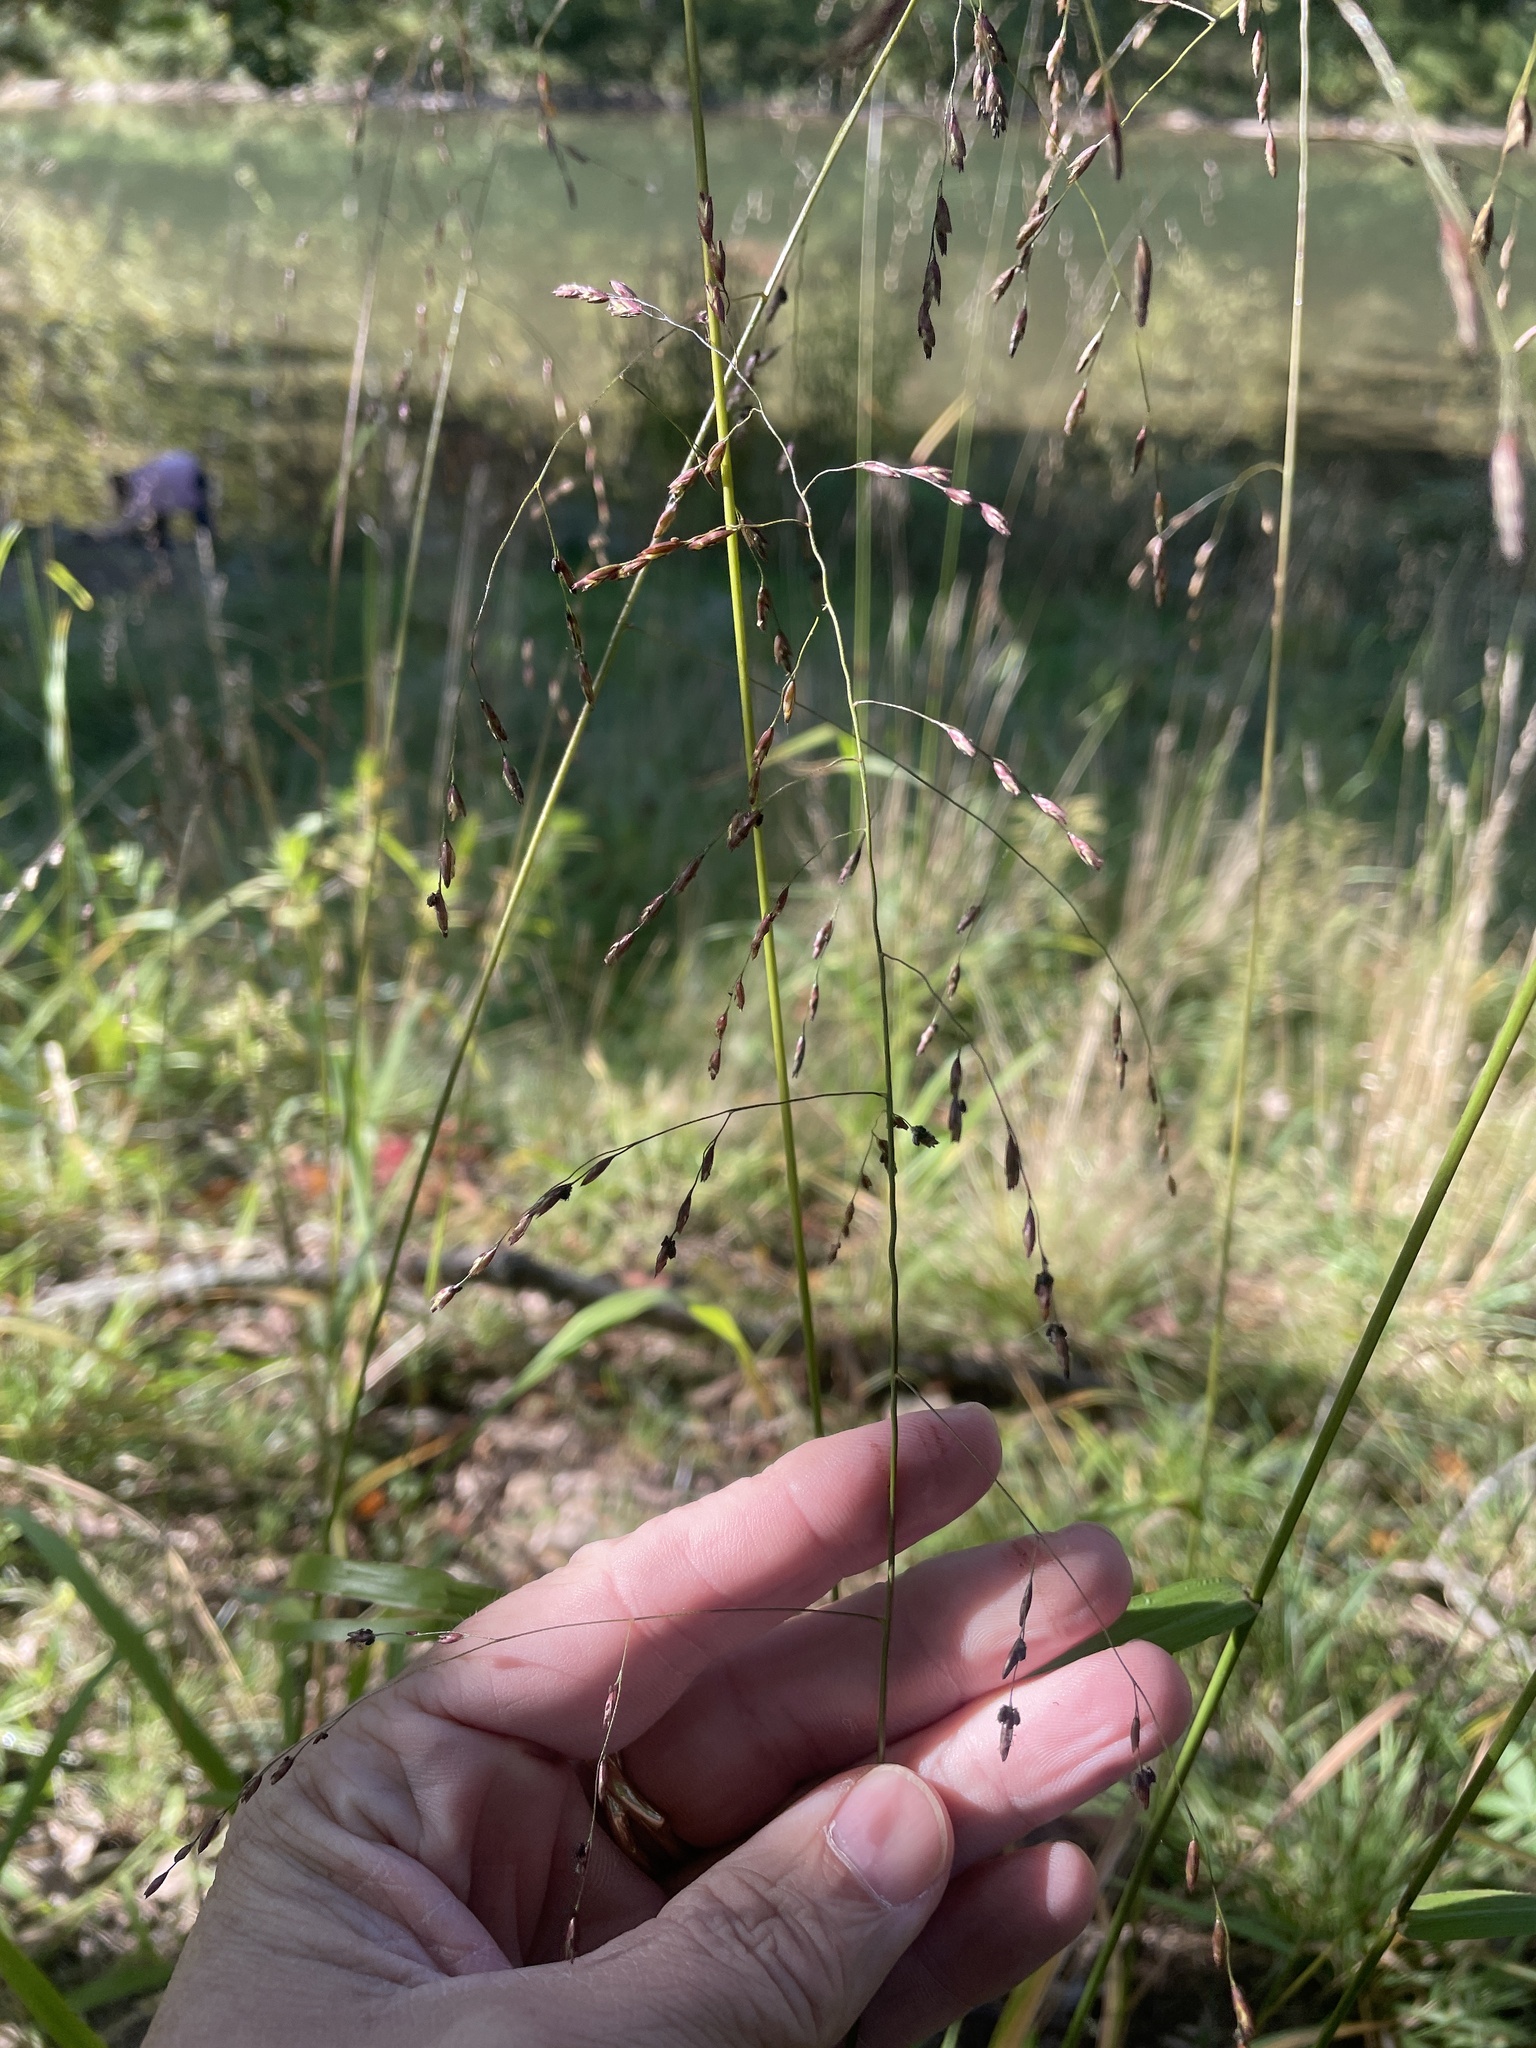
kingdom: Plantae
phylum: Tracheophyta
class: Liliopsida
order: Poales
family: Poaceae
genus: Tridens
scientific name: Tridens flavus
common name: Purpletop
